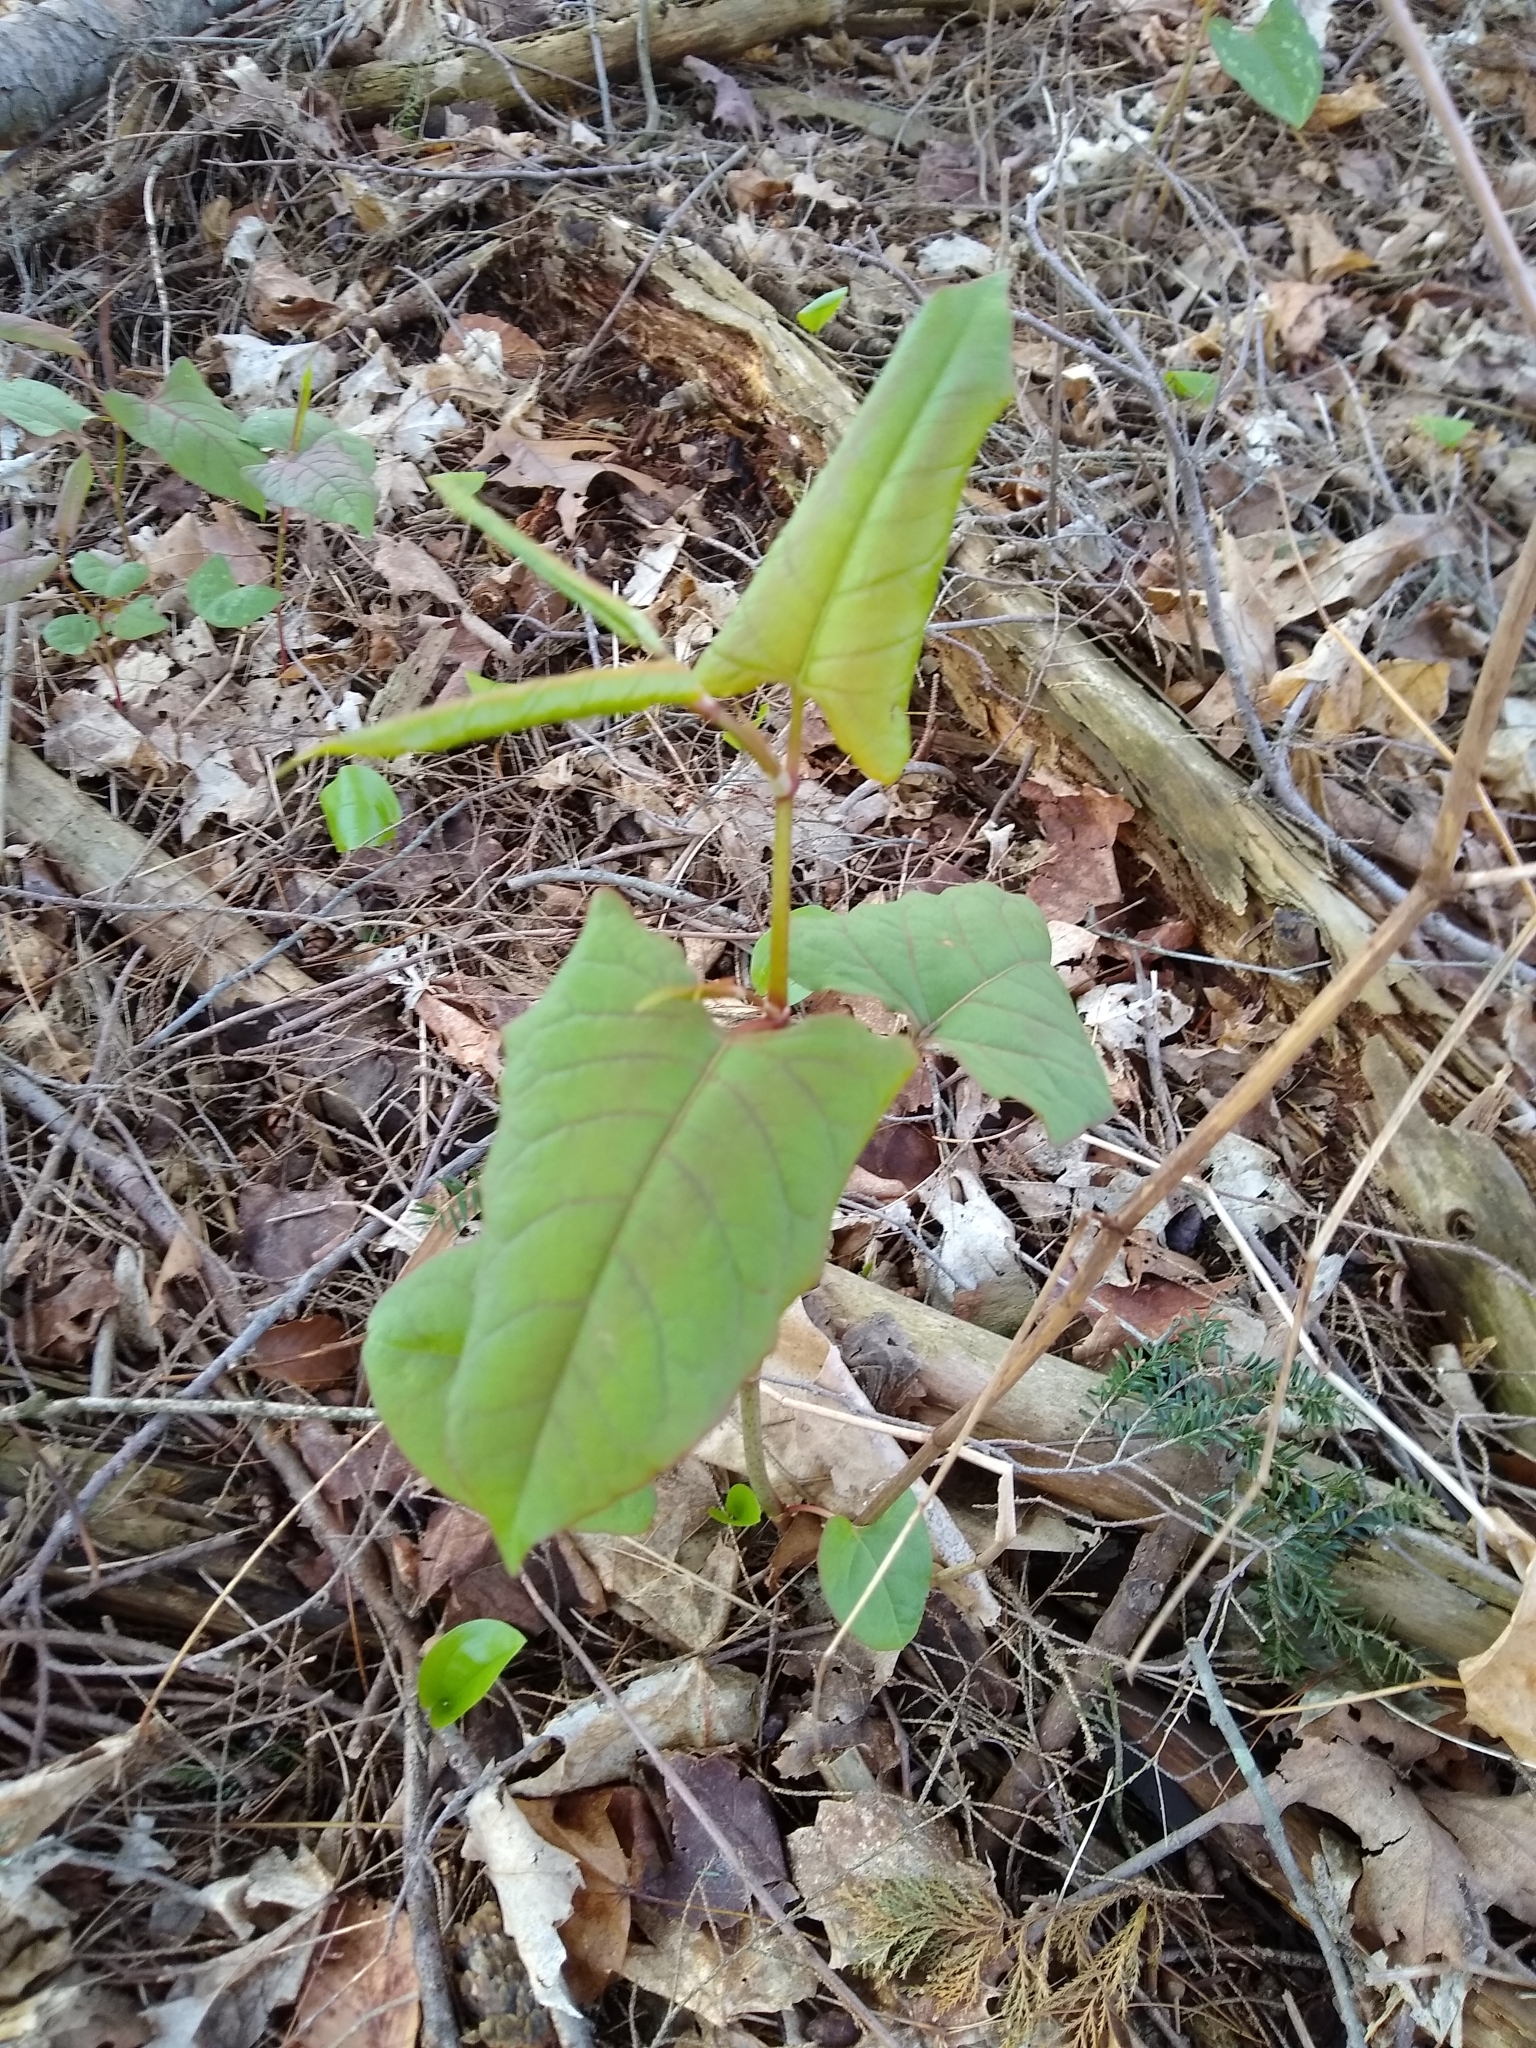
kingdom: Plantae
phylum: Tracheophyta
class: Magnoliopsida
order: Caryophyllales
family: Polygonaceae
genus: Reynoutria
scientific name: Reynoutria japonica
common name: Japanese knotweed
